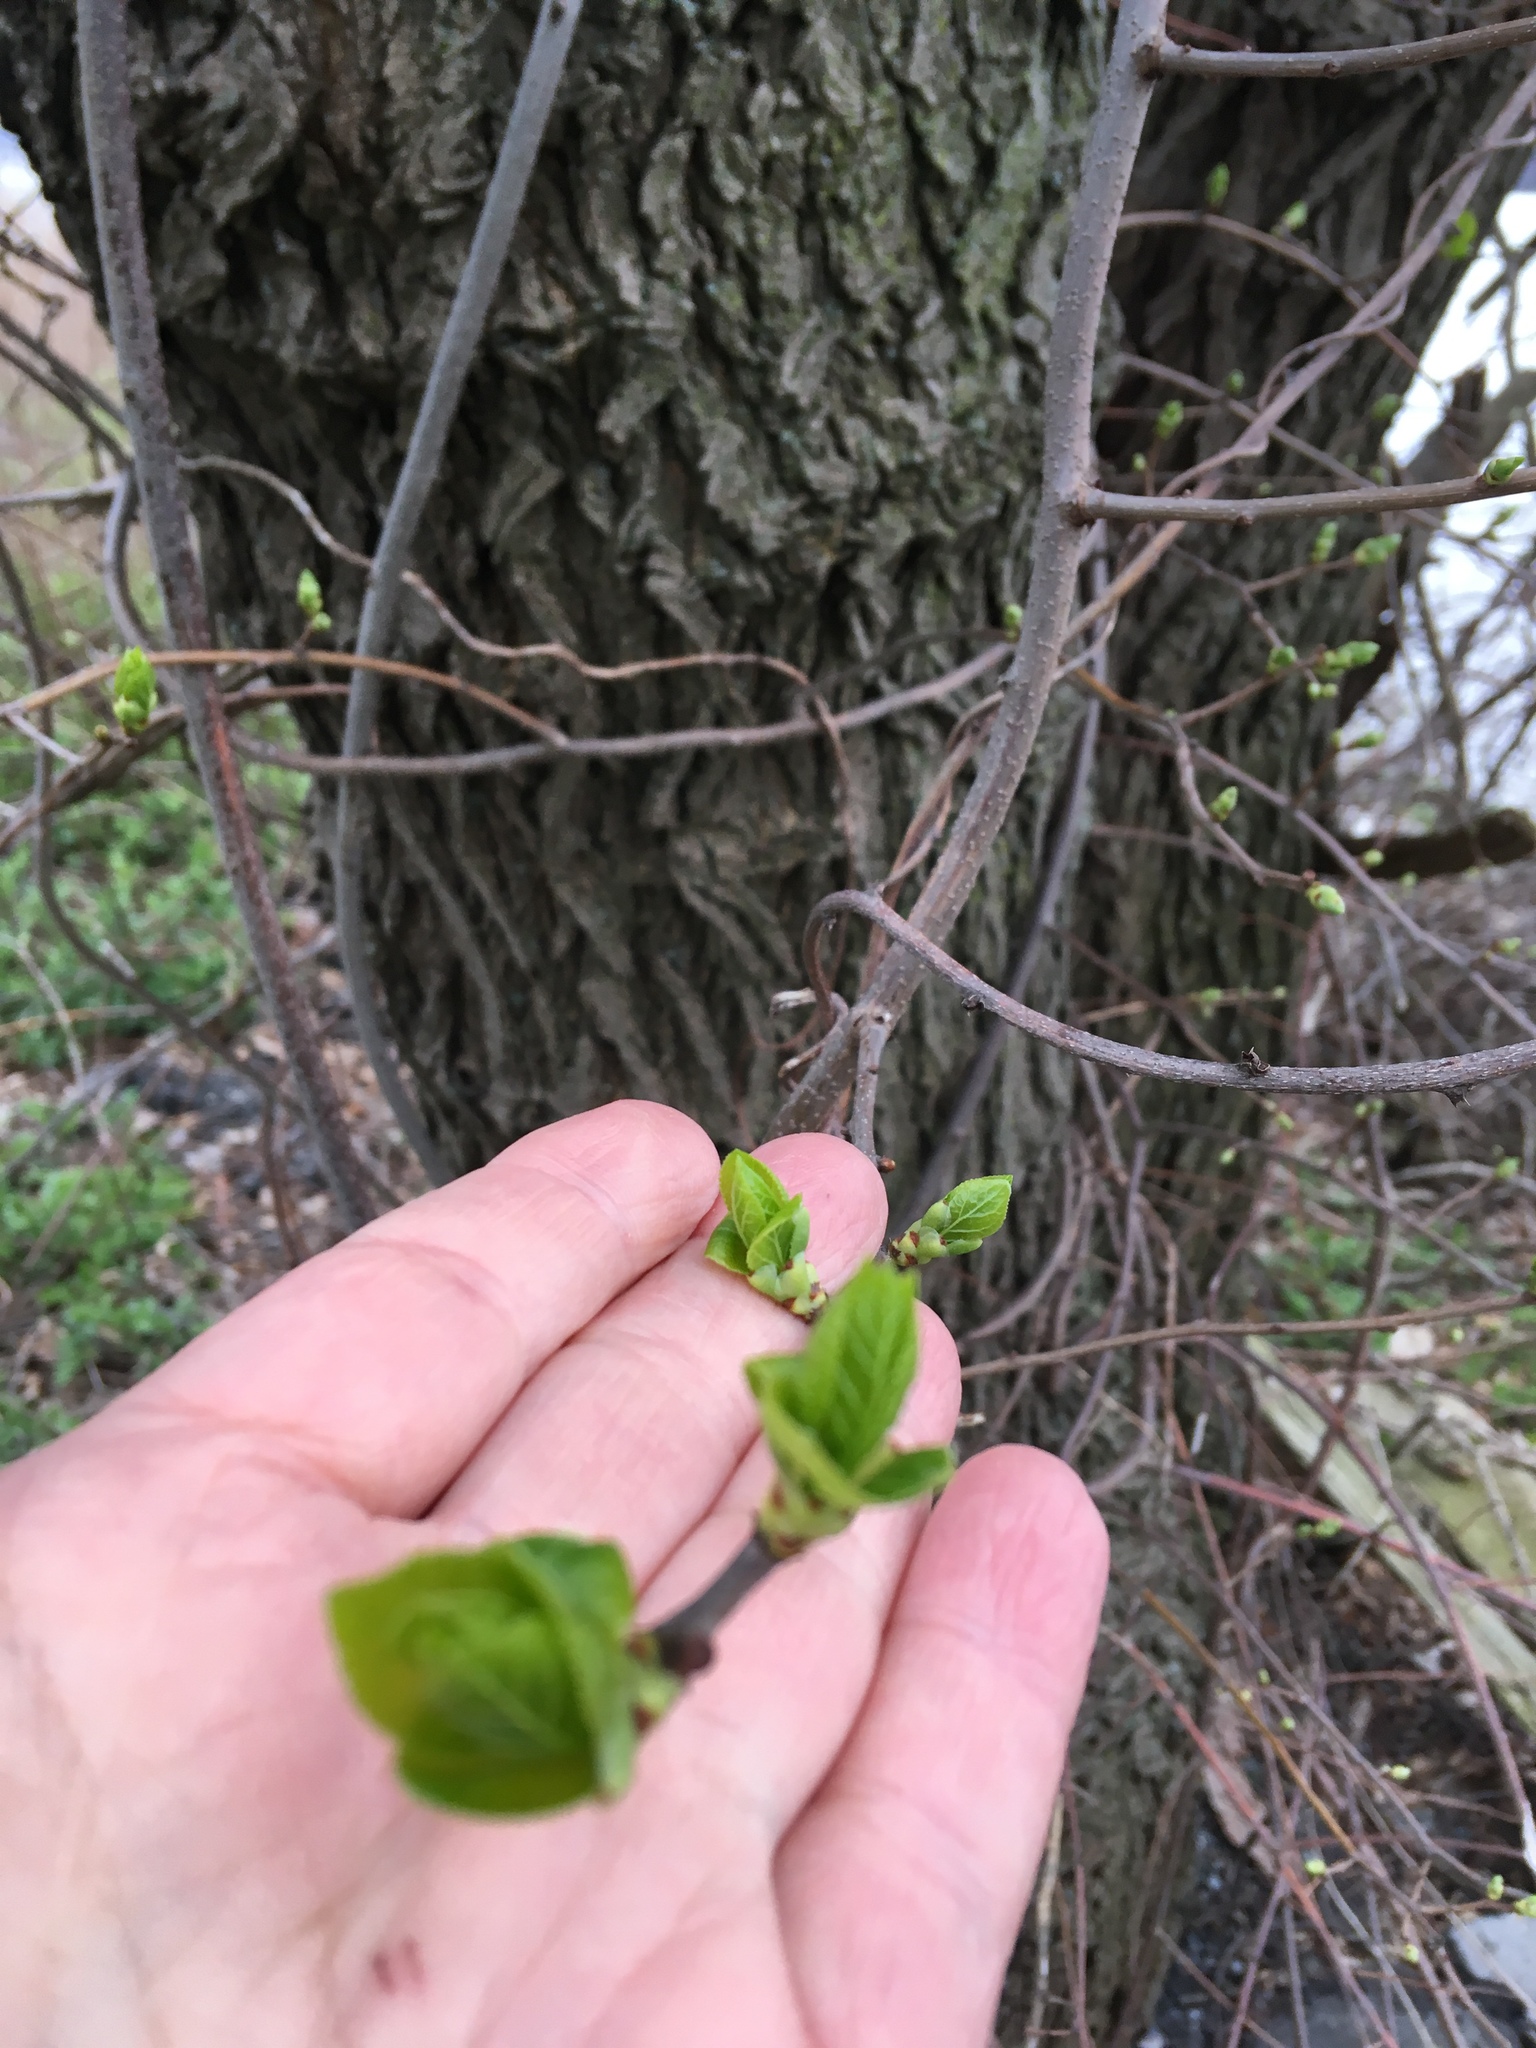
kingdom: Plantae
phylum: Tracheophyta
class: Magnoliopsida
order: Celastrales
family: Celastraceae
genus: Celastrus
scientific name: Celastrus orbiculatus
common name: Oriental bittersweet
